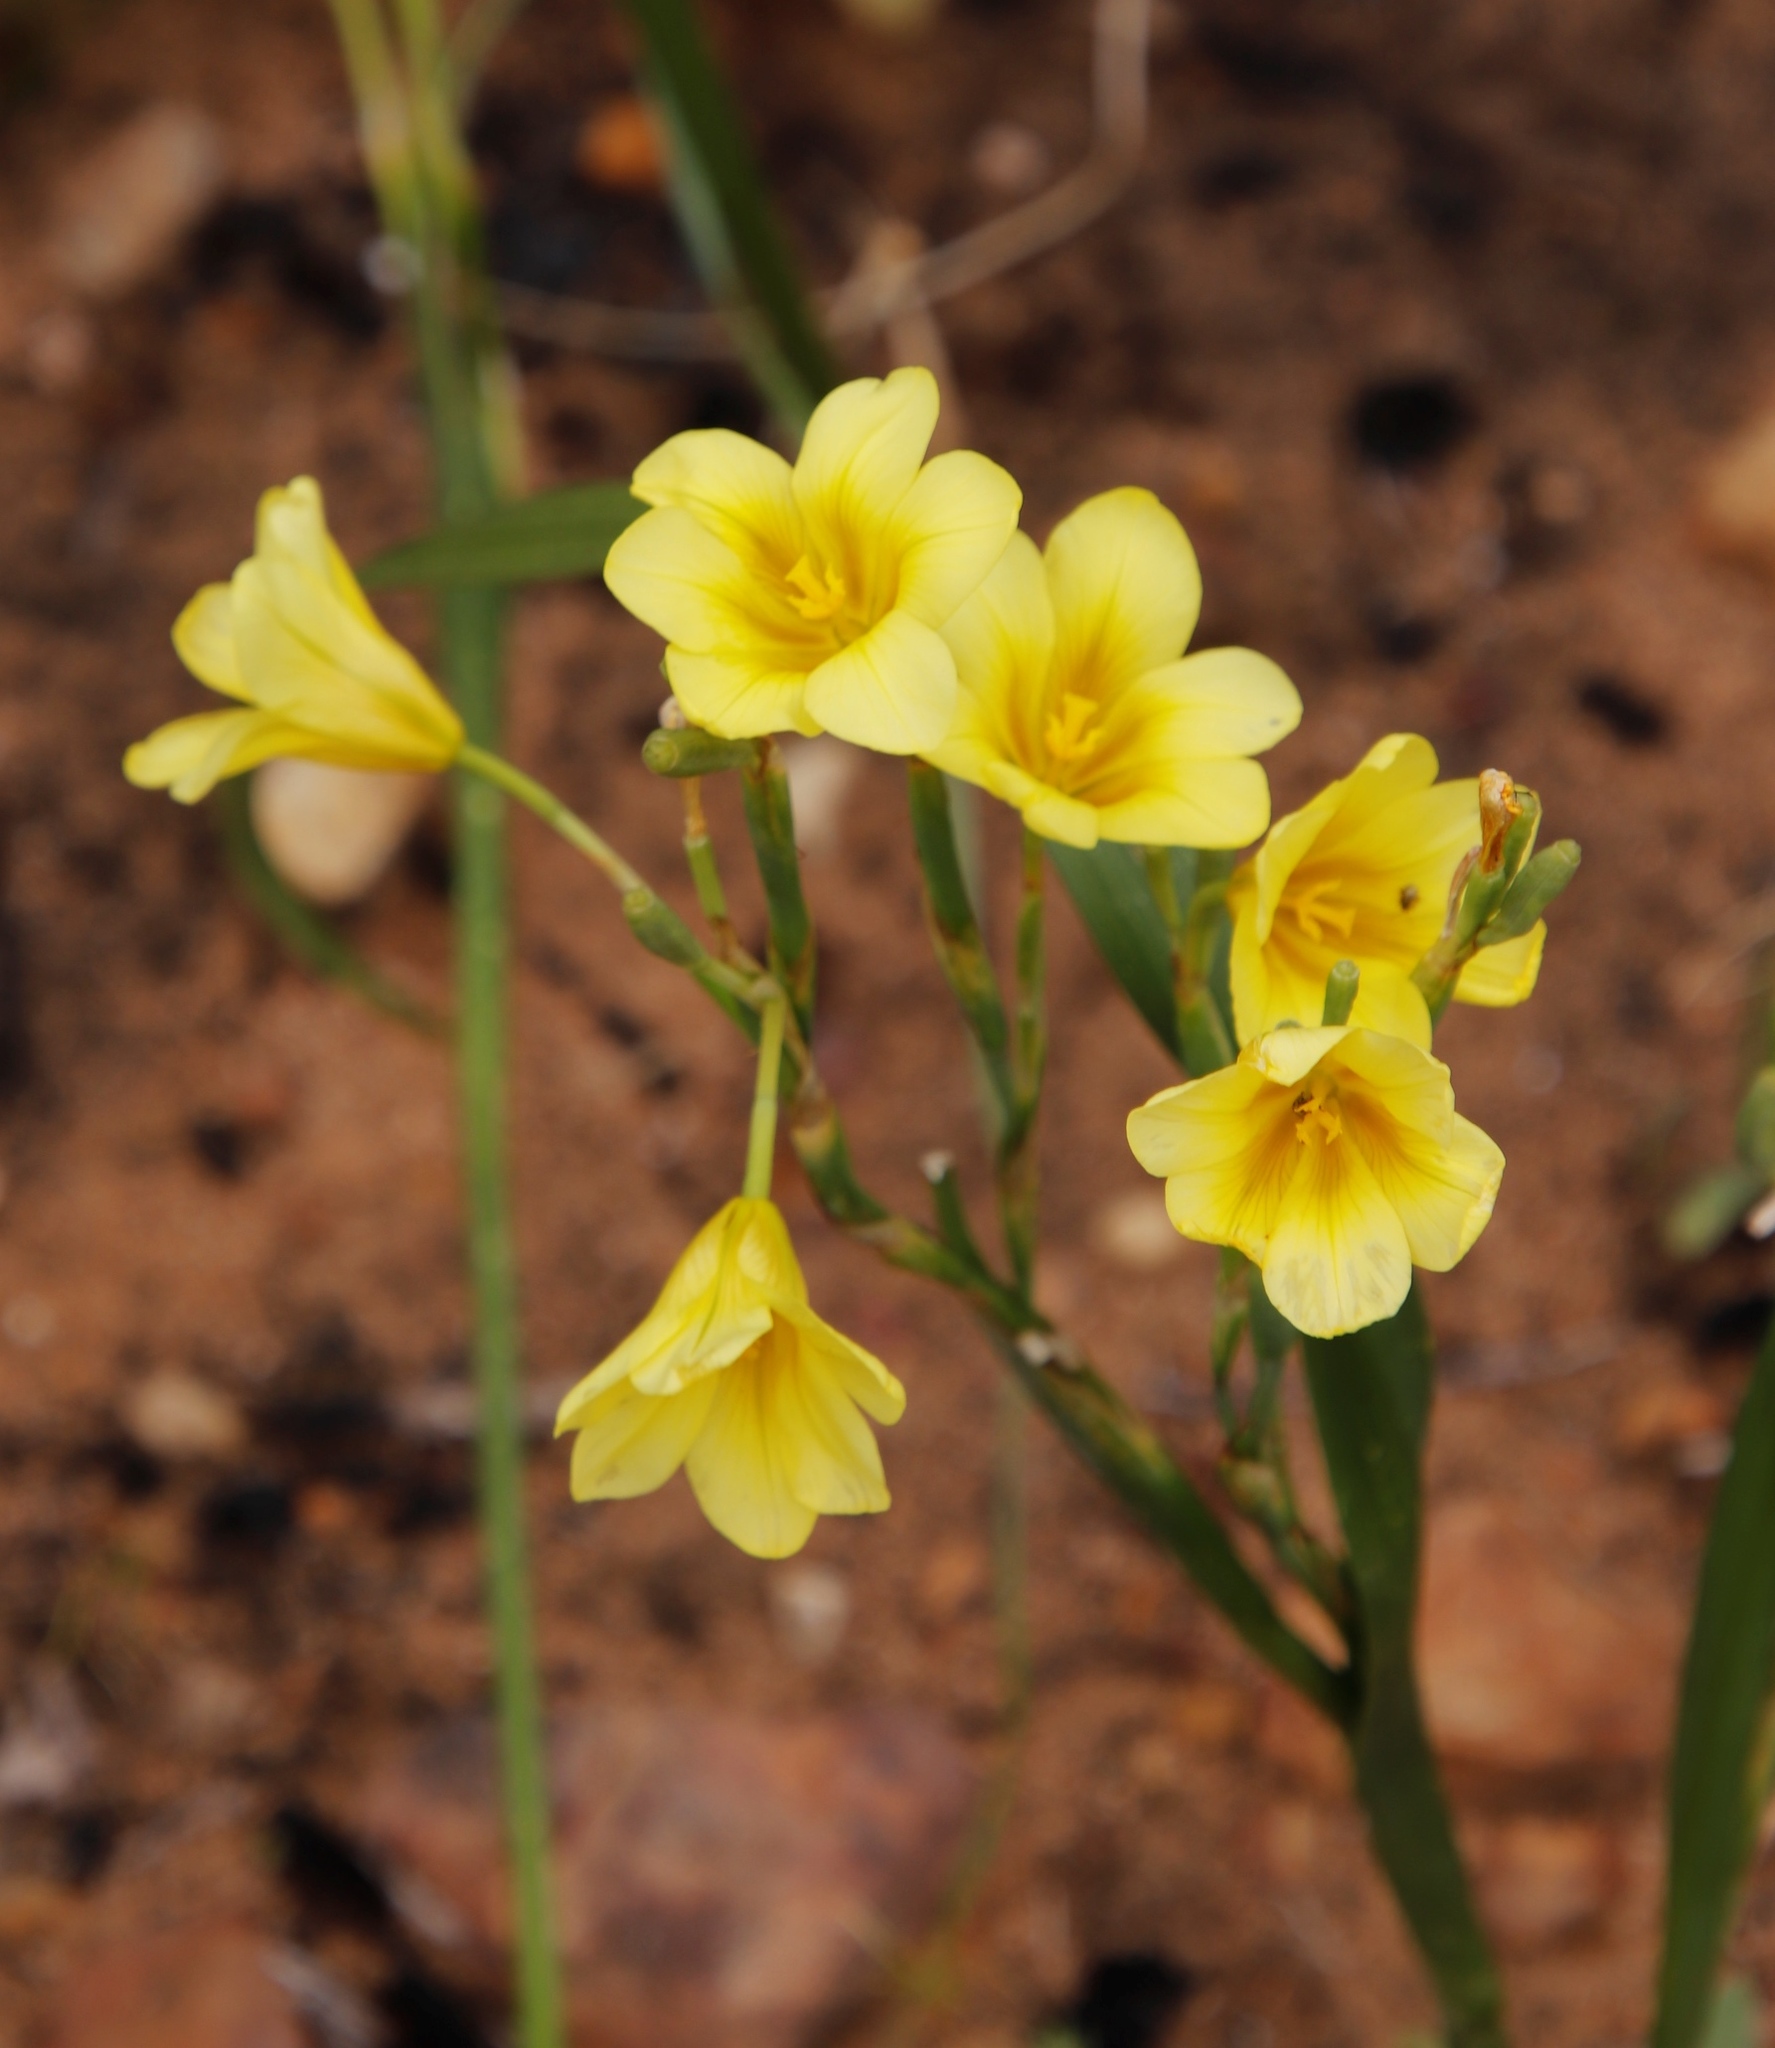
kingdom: Plantae
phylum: Tracheophyta
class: Liliopsida
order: Asparagales
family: Iridaceae
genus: Moraea
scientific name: Moraea ochroleuca
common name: Red tulp
